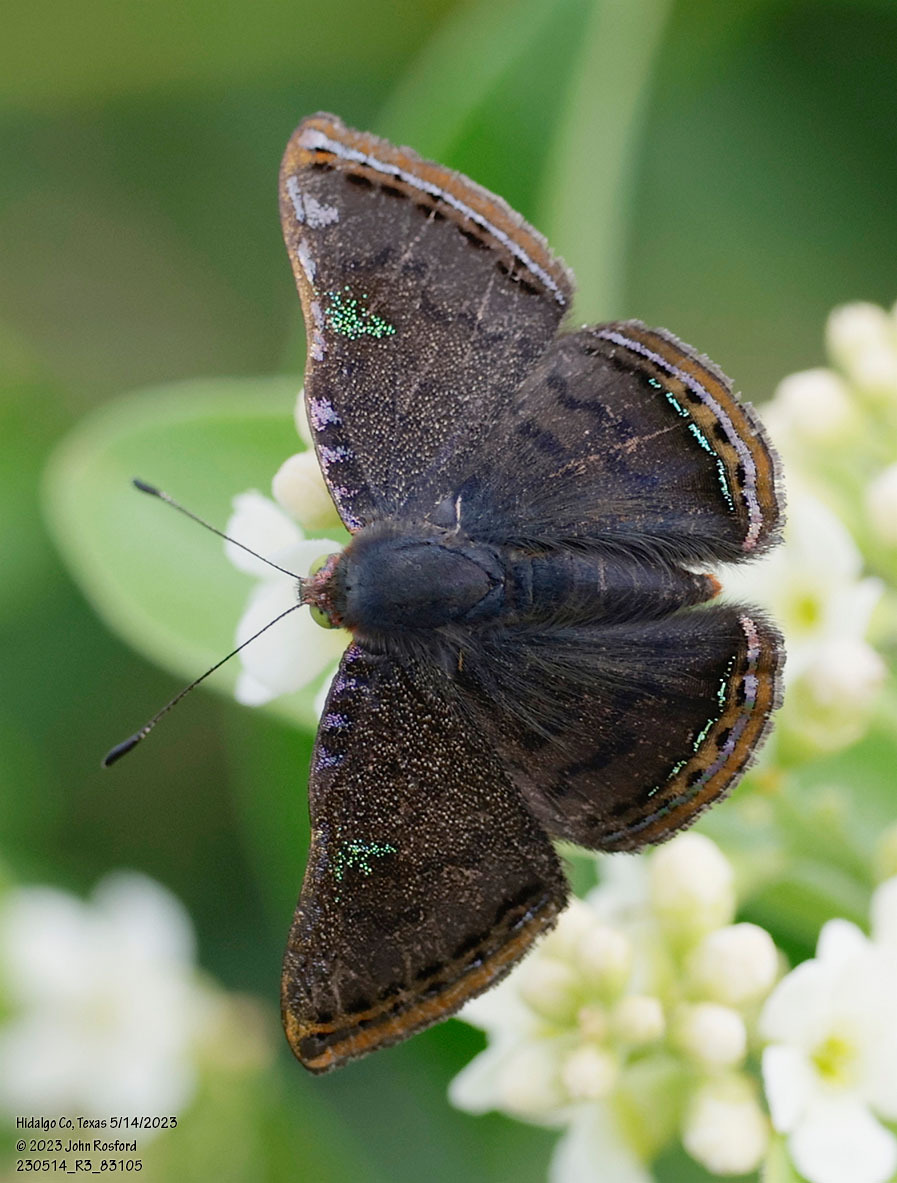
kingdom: Animalia
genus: Caria
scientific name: Caria ino
